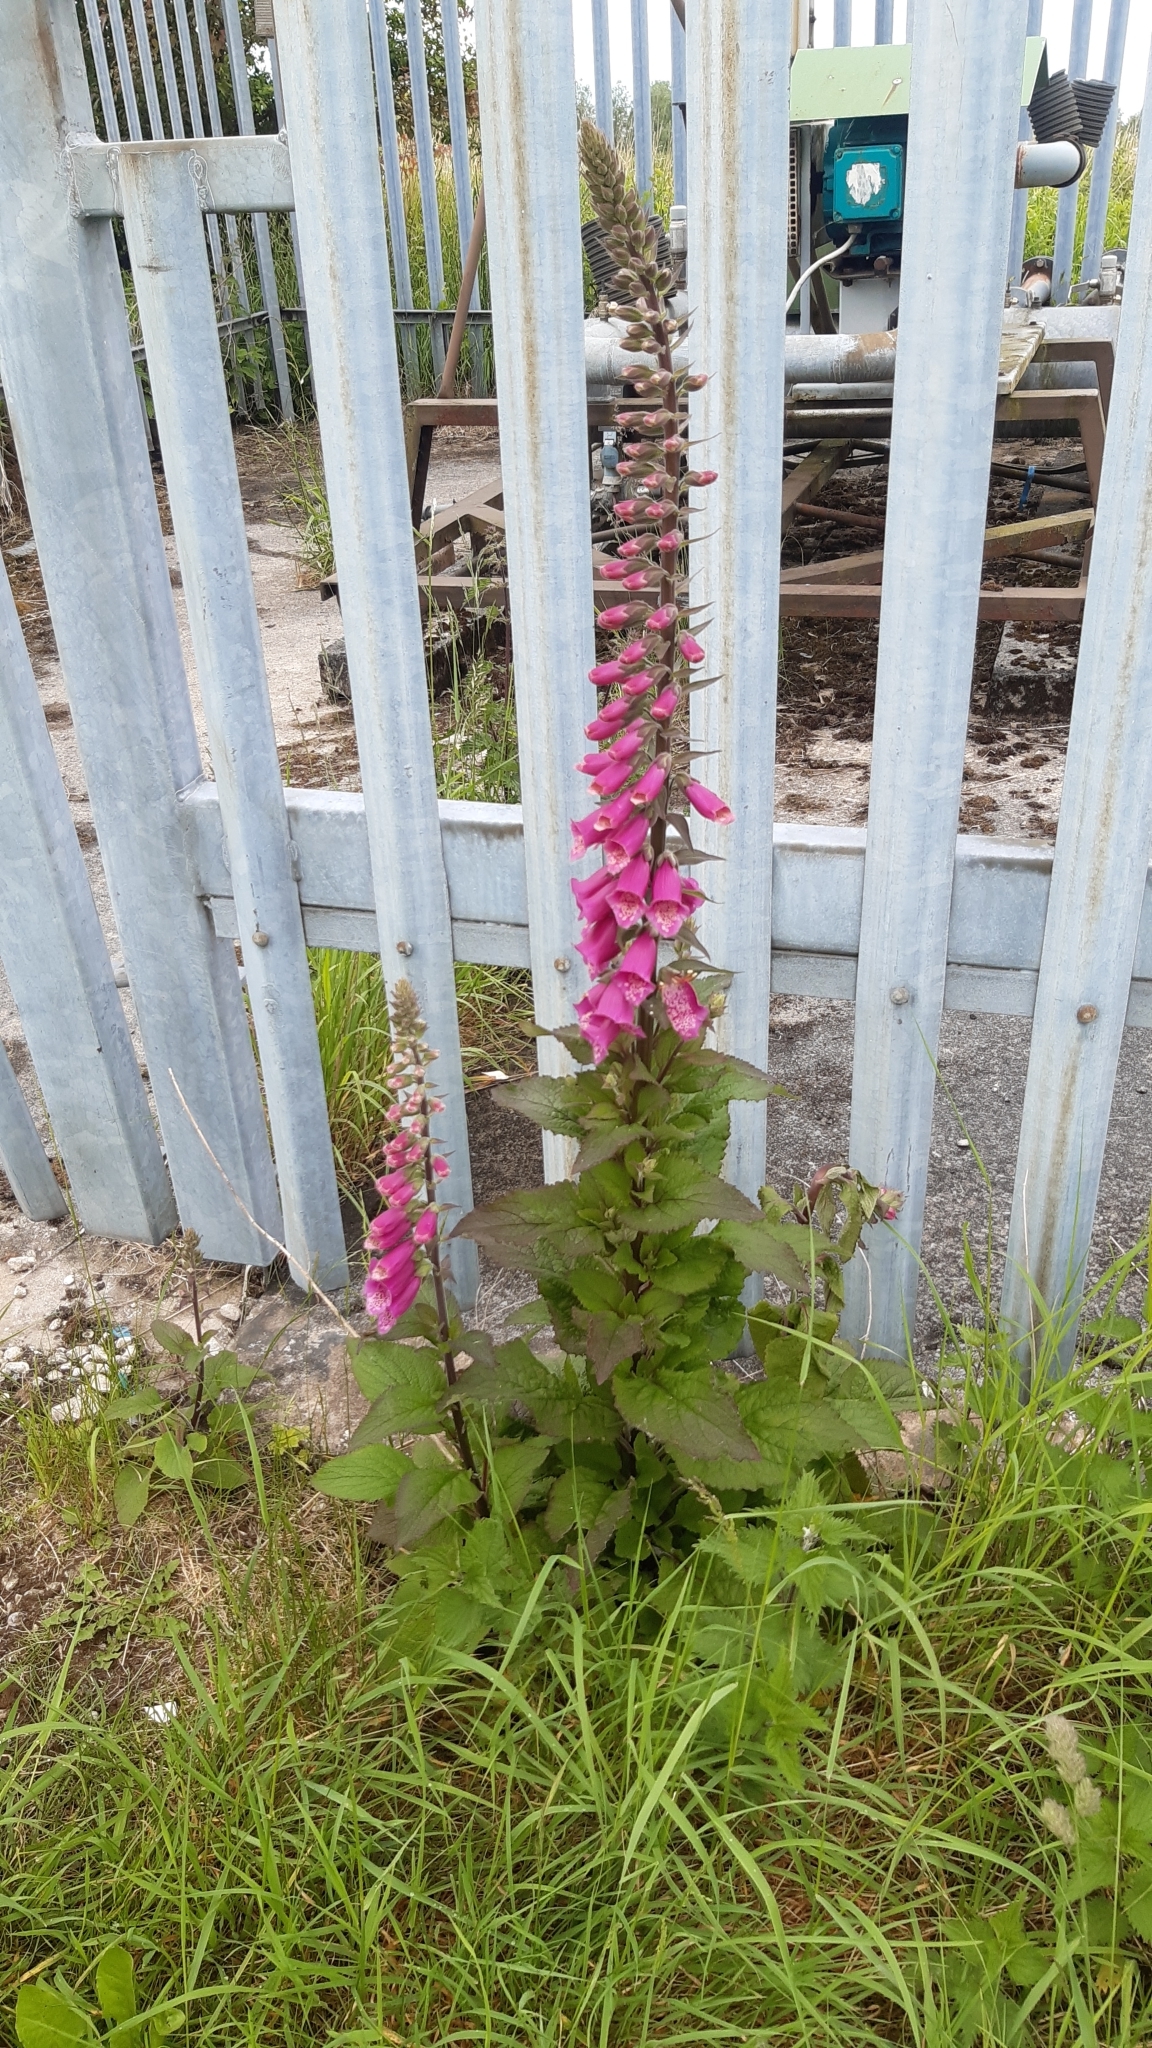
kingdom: Plantae
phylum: Tracheophyta
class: Magnoliopsida
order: Lamiales
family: Plantaginaceae
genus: Digitalis
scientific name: Digitalis purpurea
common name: Foxglove
